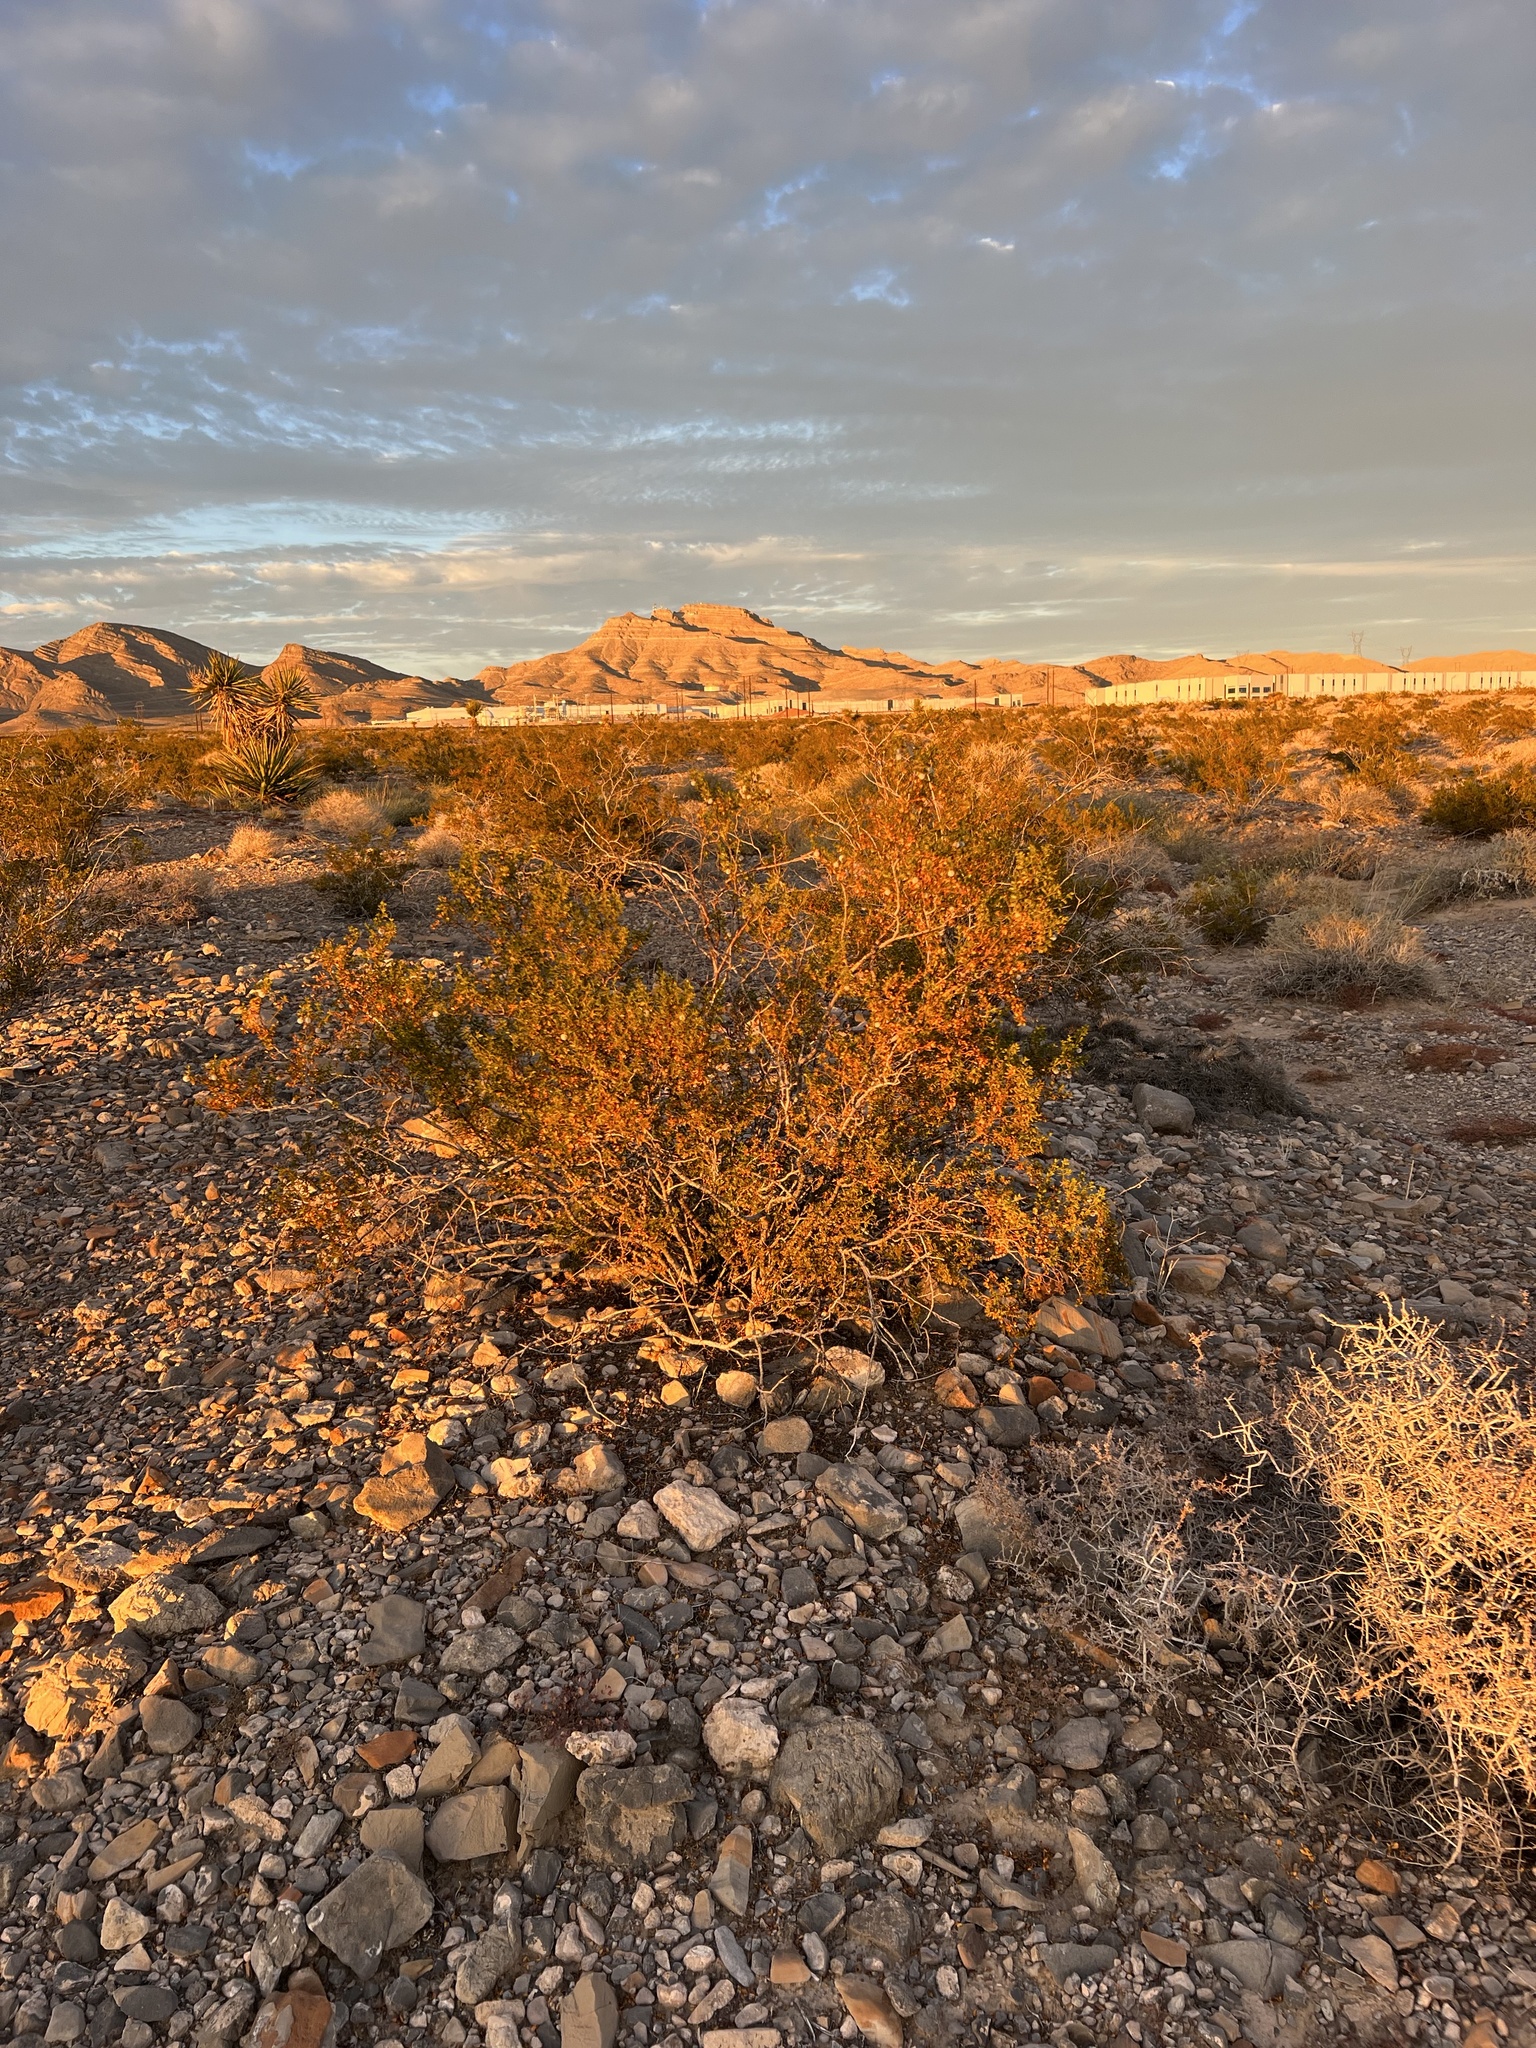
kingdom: Plantae
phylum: Tracheophyta
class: Magnoliopsida
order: Zygophyllales
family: Zygophyllaceae
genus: Larrea
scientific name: Larrea tridentata
